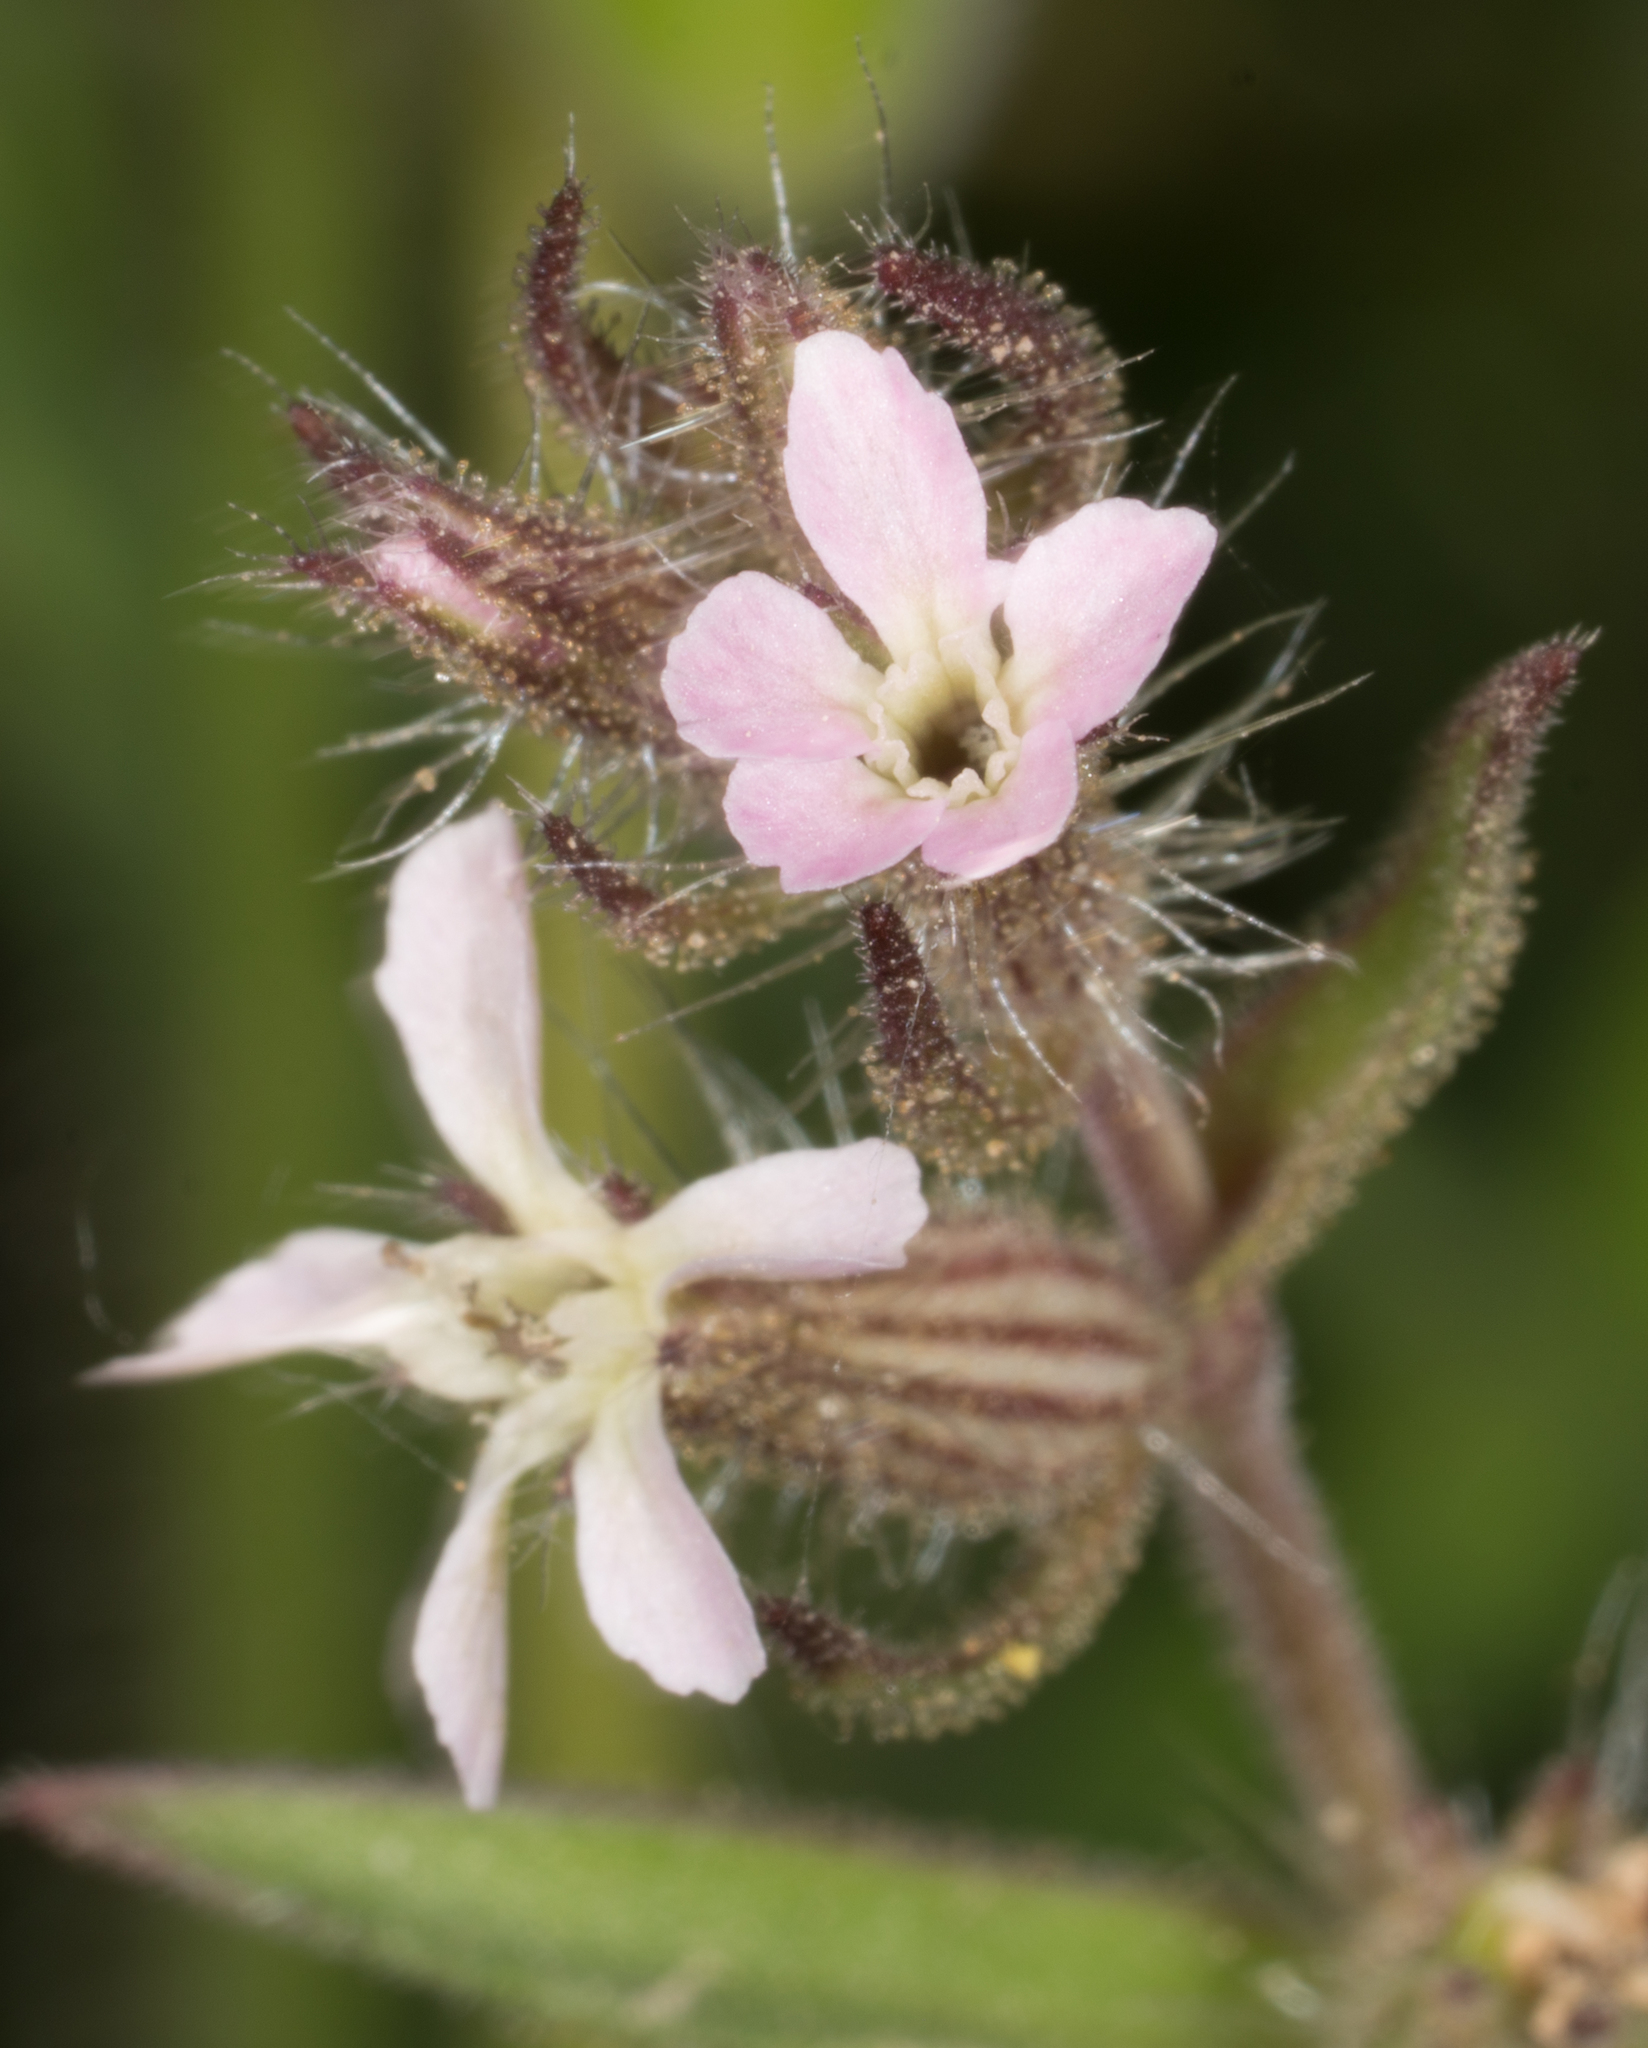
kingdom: Plantae
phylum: Tracheophyta
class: Magnoliopsida
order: Caryophyllales
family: Caryophyllaceae
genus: Silene
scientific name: Silene gallica
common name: Small-flowered catchfly
